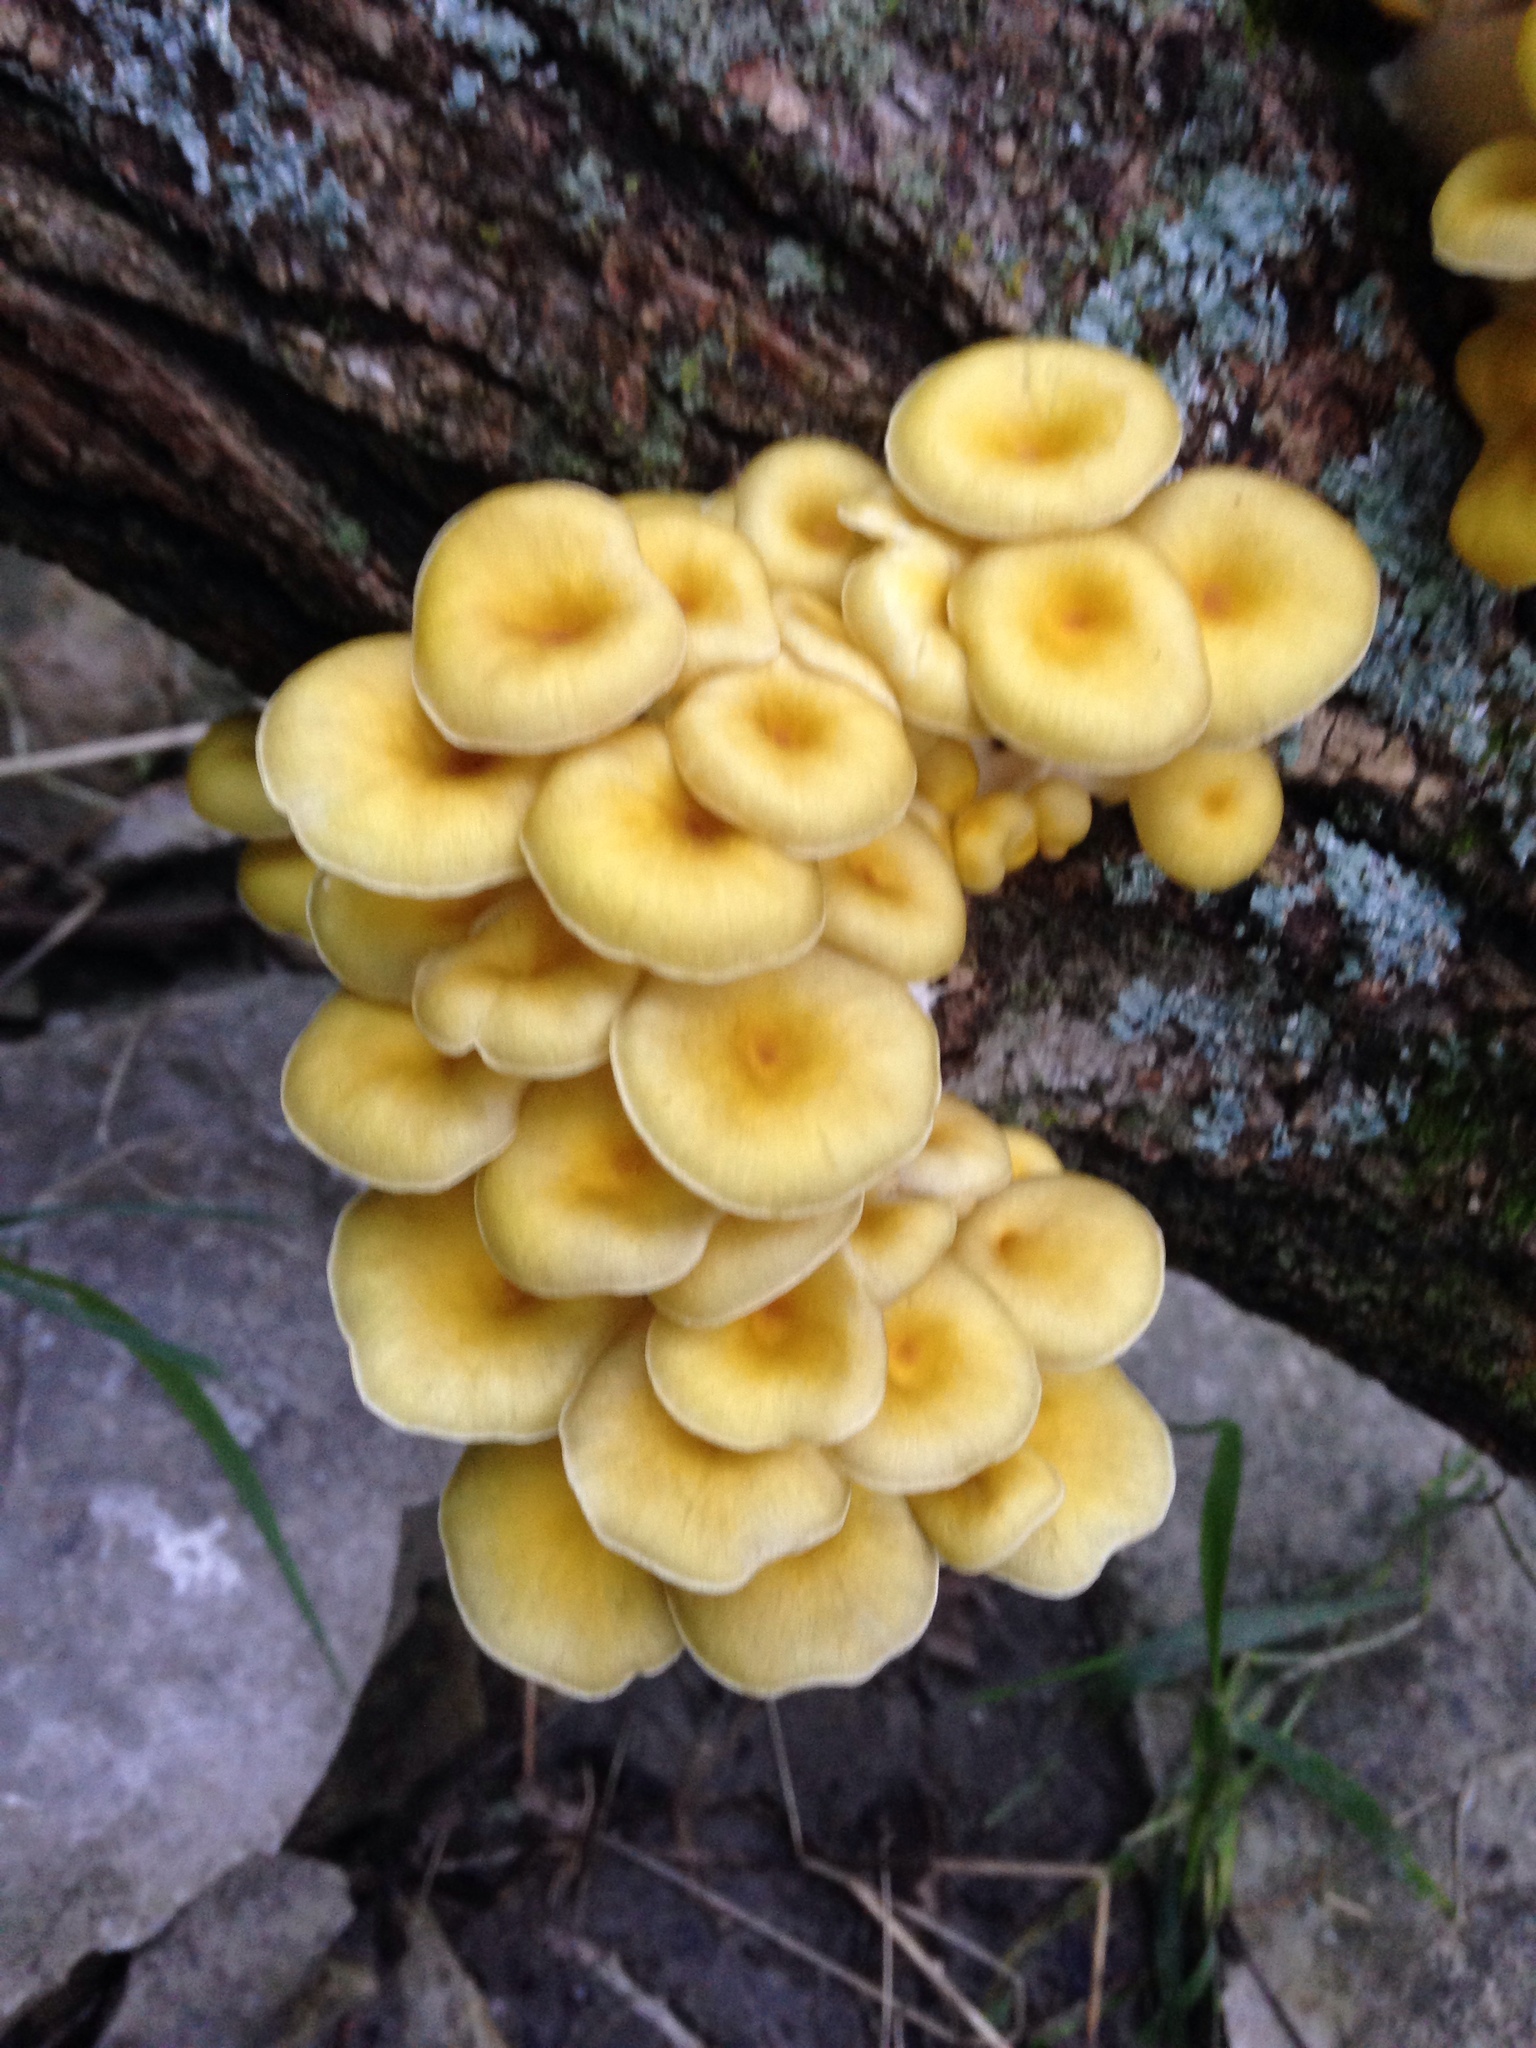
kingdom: Fungi
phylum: Basidiomycota
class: Agaricomycetes
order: Agaricales
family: Pleurotaceae
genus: Pleurotus
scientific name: Pleurotus citrinopileatus
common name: Golden oyster mushroom
